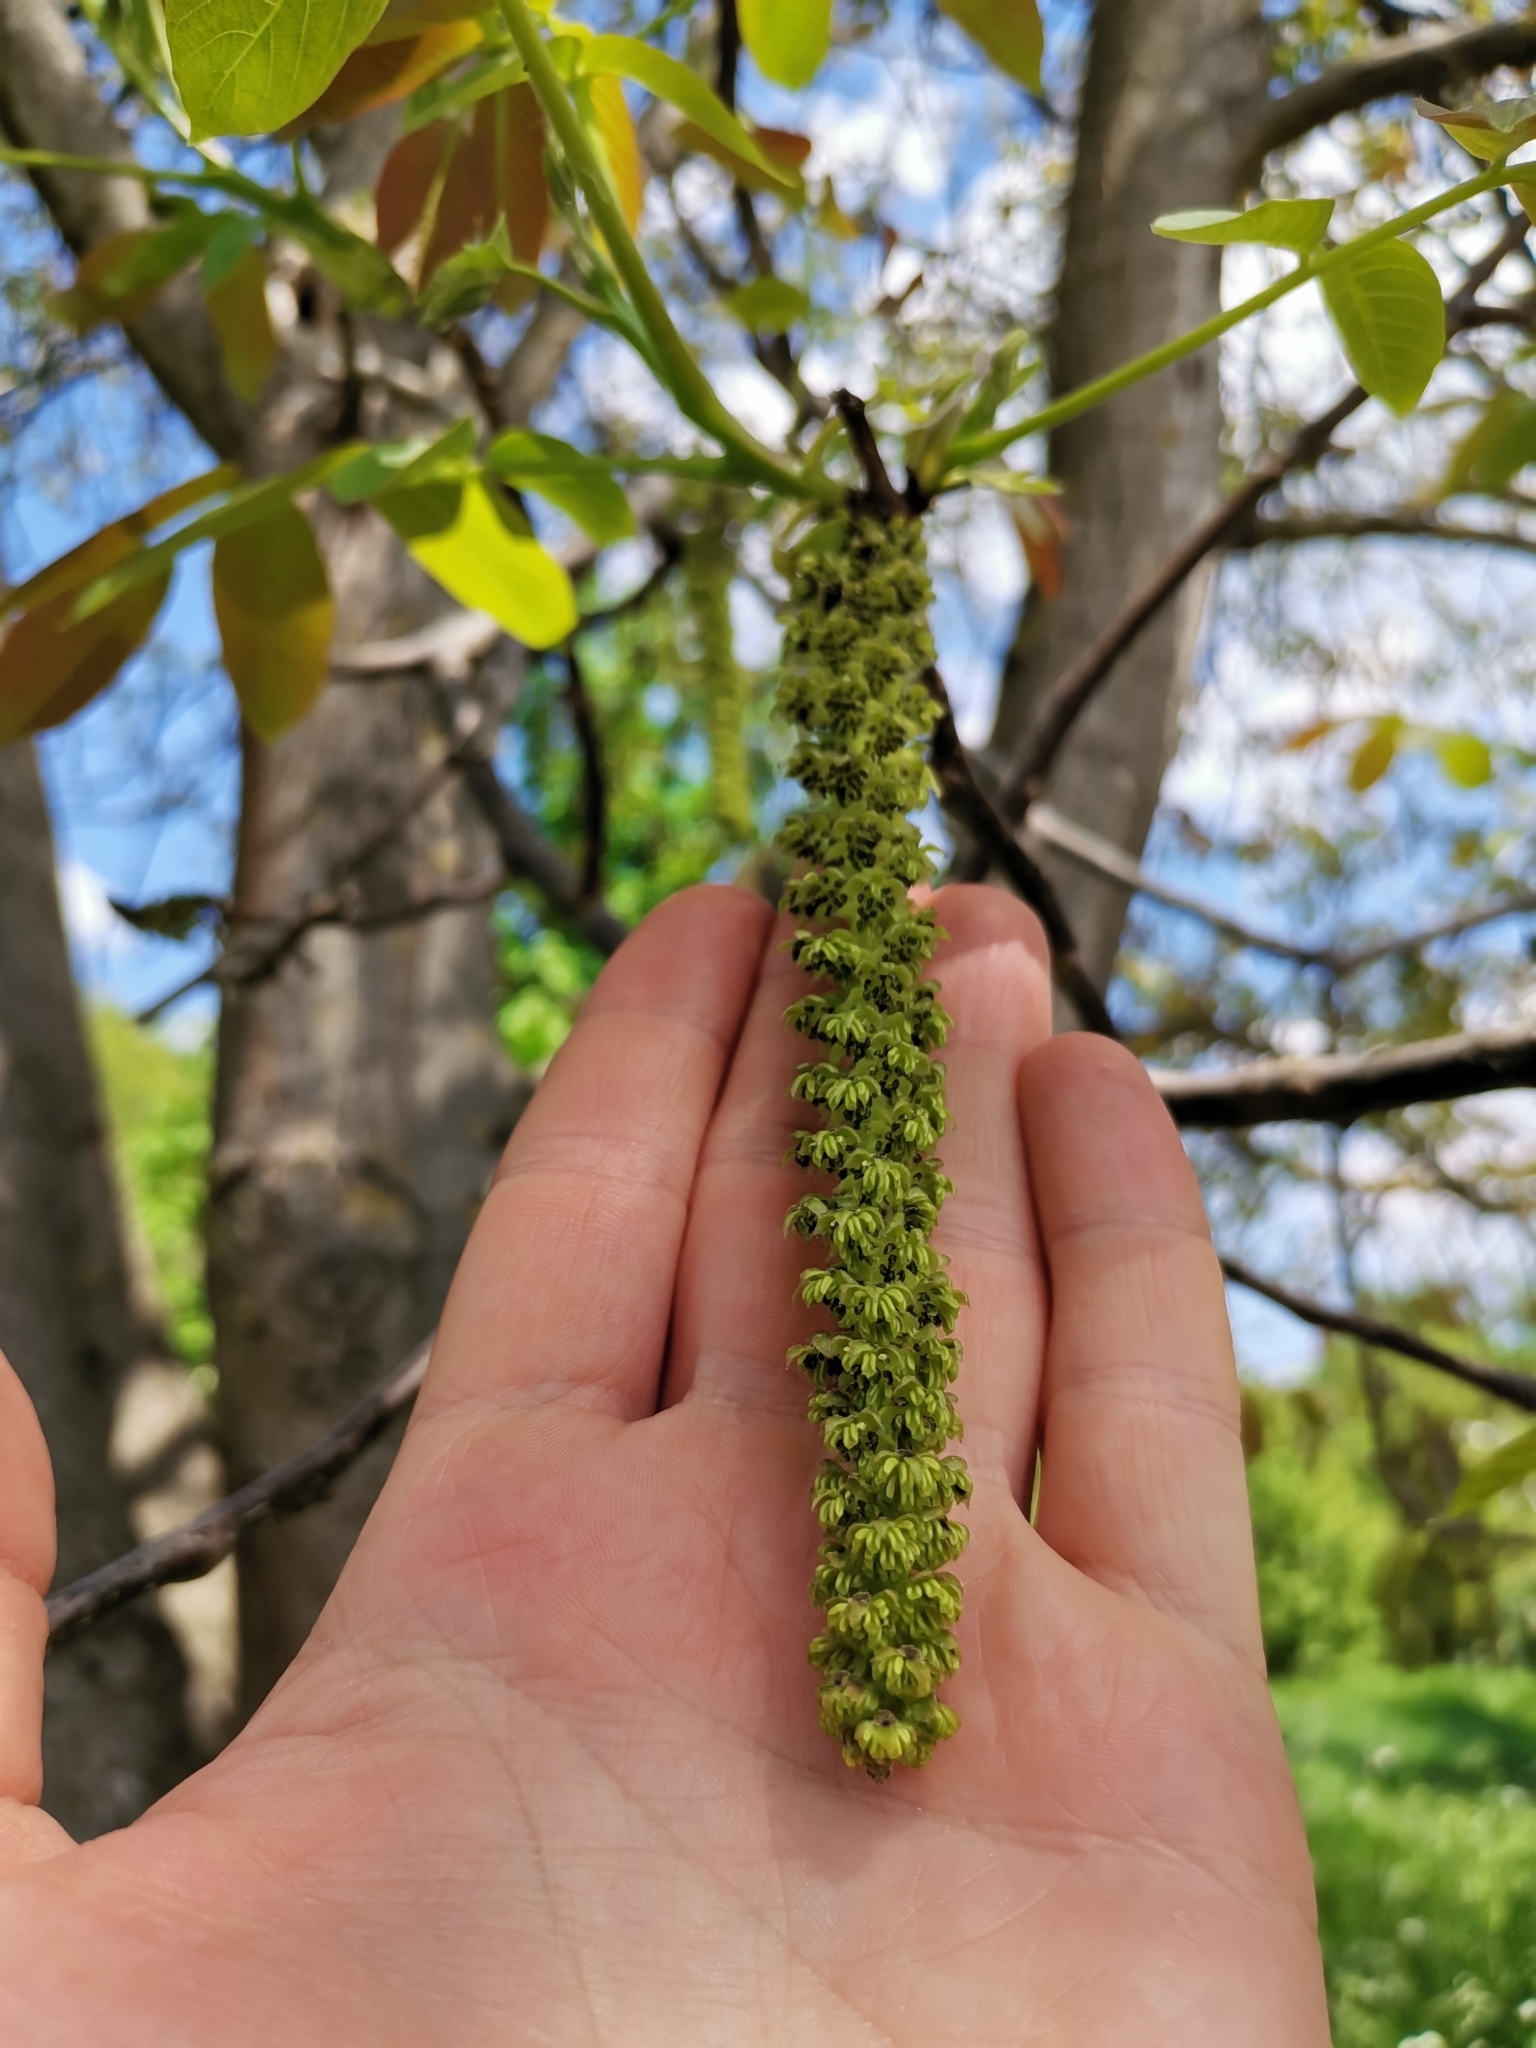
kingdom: Plantae
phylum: Tracheophyta
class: Magnoliopsida
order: Fagales
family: Juglandaceae
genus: Juglans
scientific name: Juglans regia
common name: Walnut
